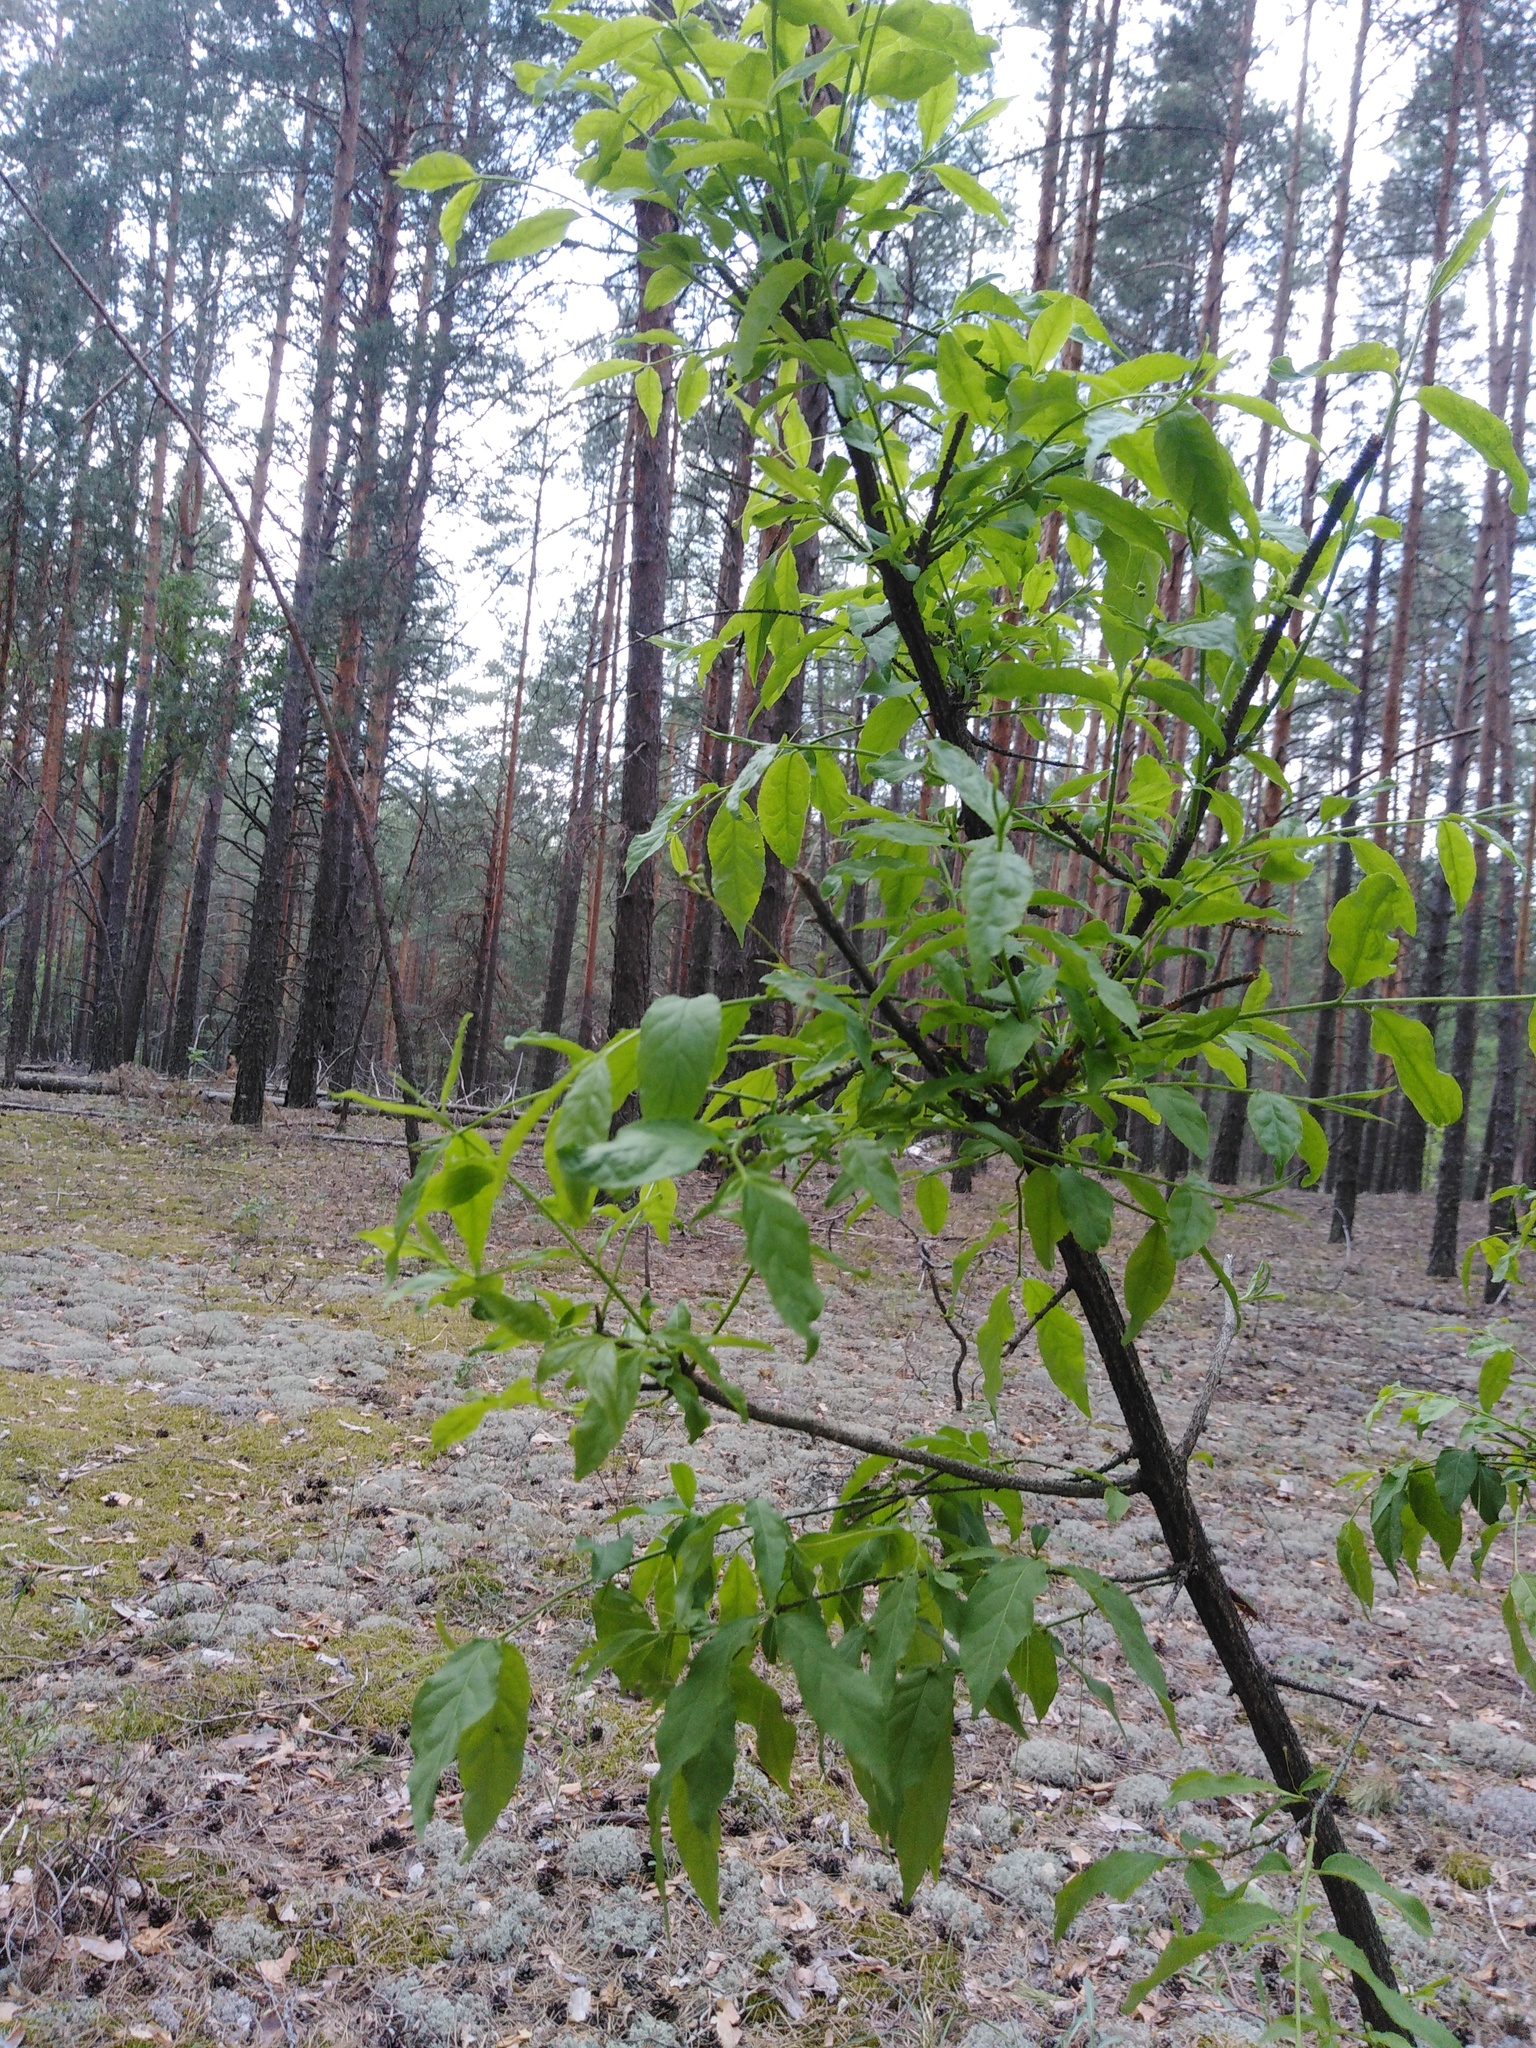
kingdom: Plantae
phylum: Tracheophyta
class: Magnoliopsida
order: Celastrales
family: Celastraceae
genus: Euonymus
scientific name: Euonymus verrucosus
